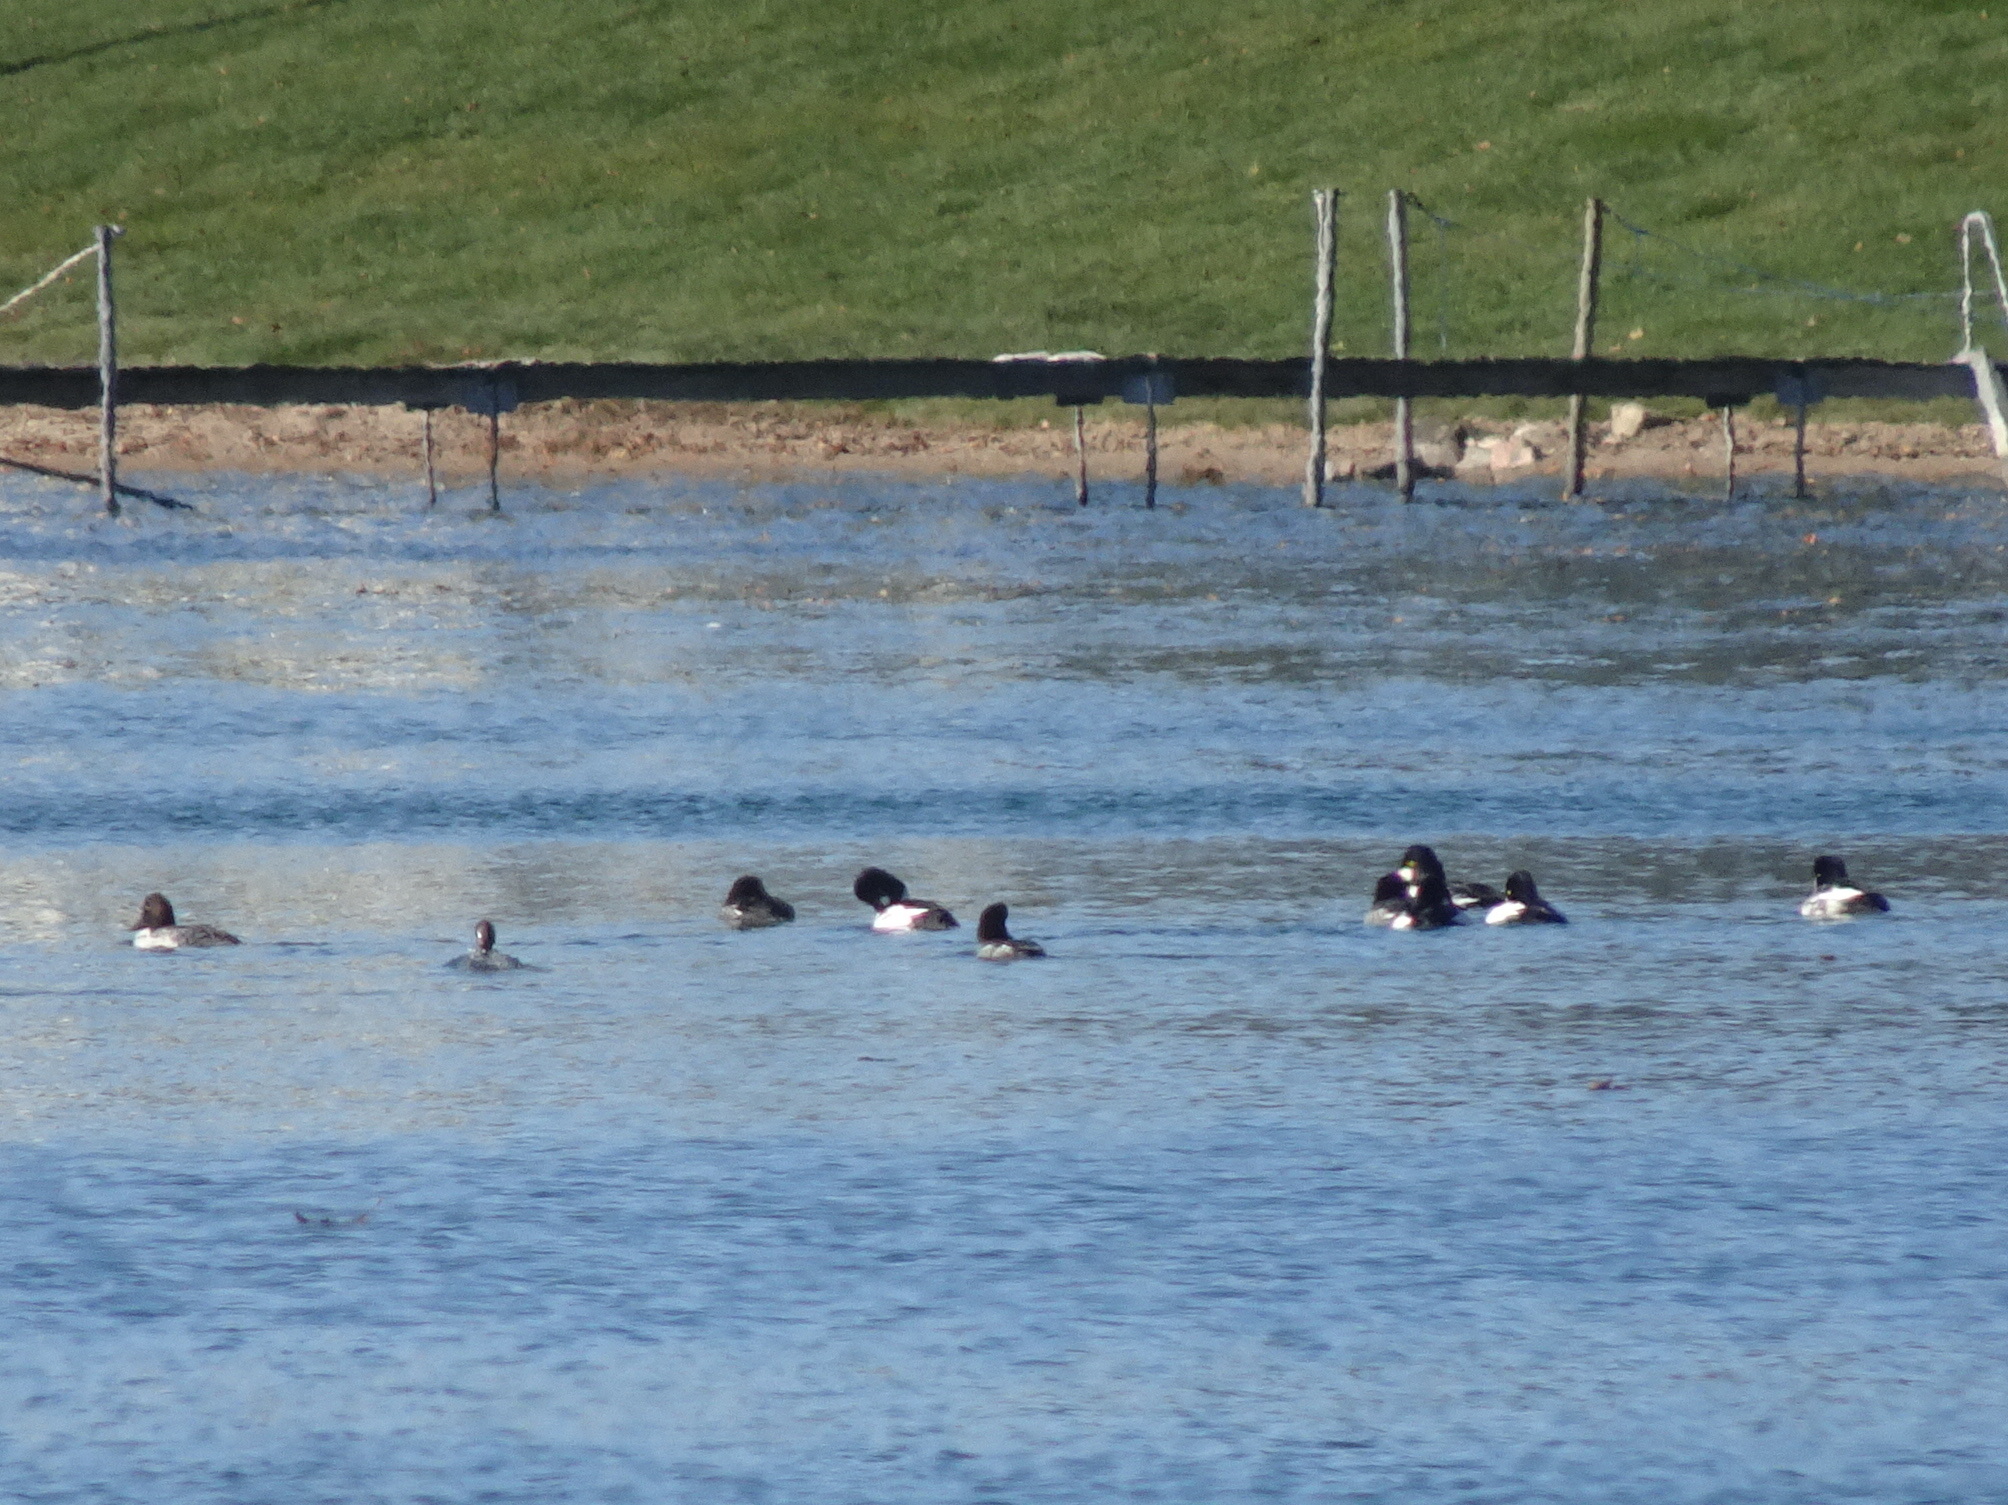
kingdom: Animalia
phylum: Chordata
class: Aves
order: Anseriformes
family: Anatidae
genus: Bucephala
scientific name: Bucephala clangula
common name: Common goldeneye
